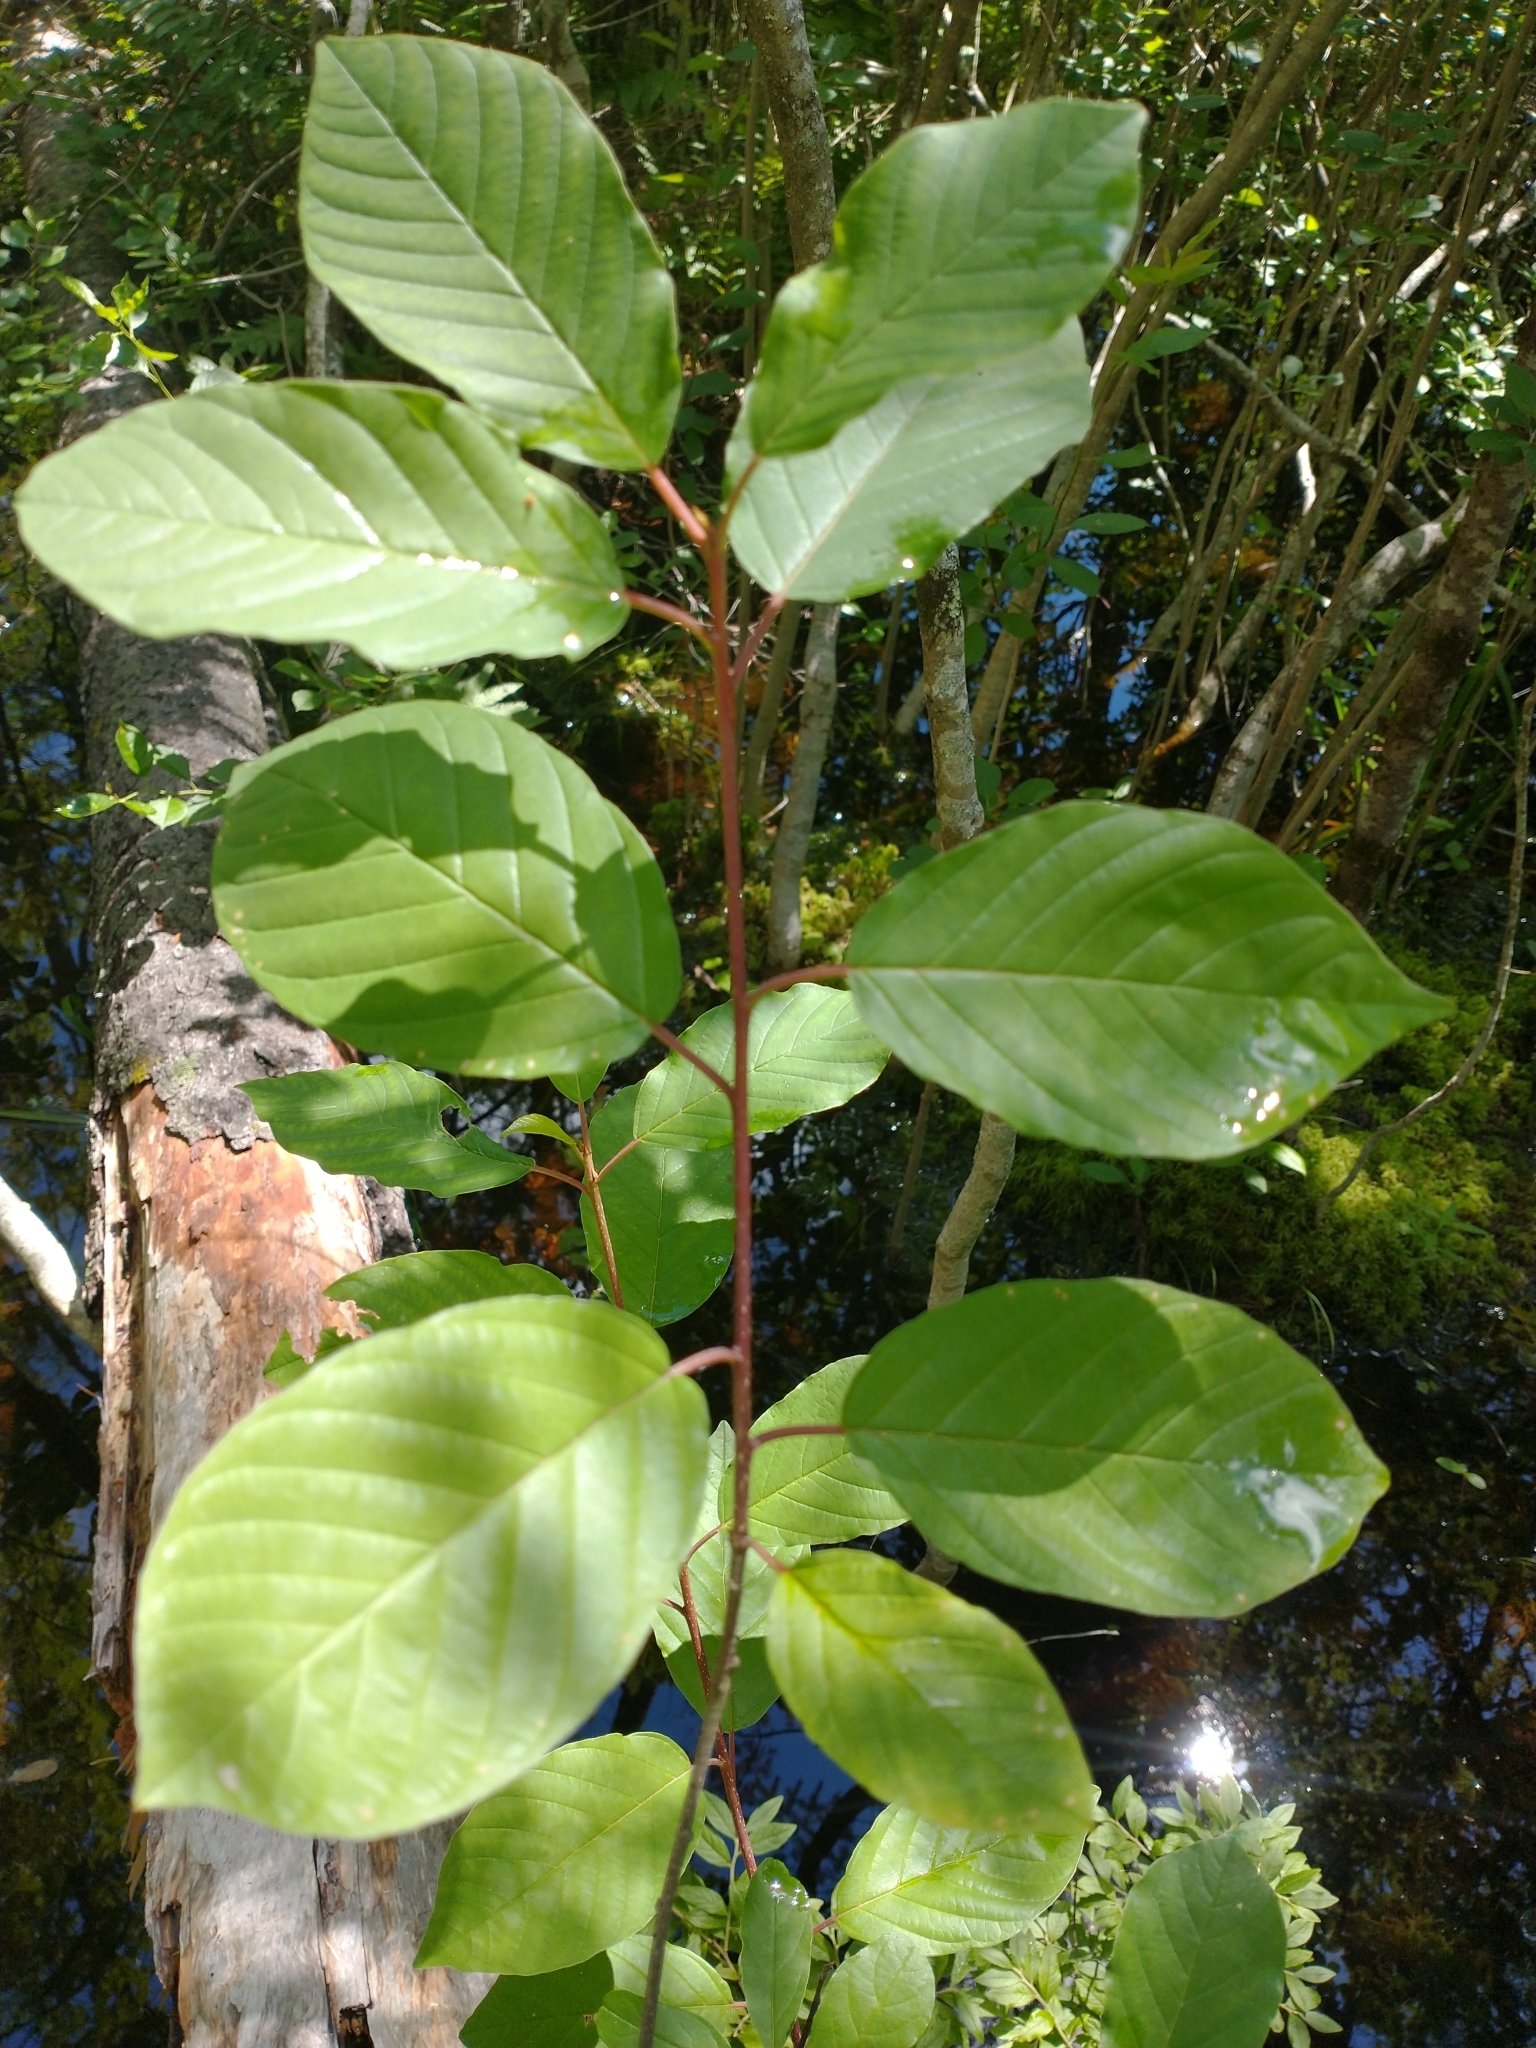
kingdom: Plantae
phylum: Tracheophyta
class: Magnoliopsida
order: Rosales
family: Rhamnaceae
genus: Frangula
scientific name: Frangula alnus
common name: Alder buckthorn
